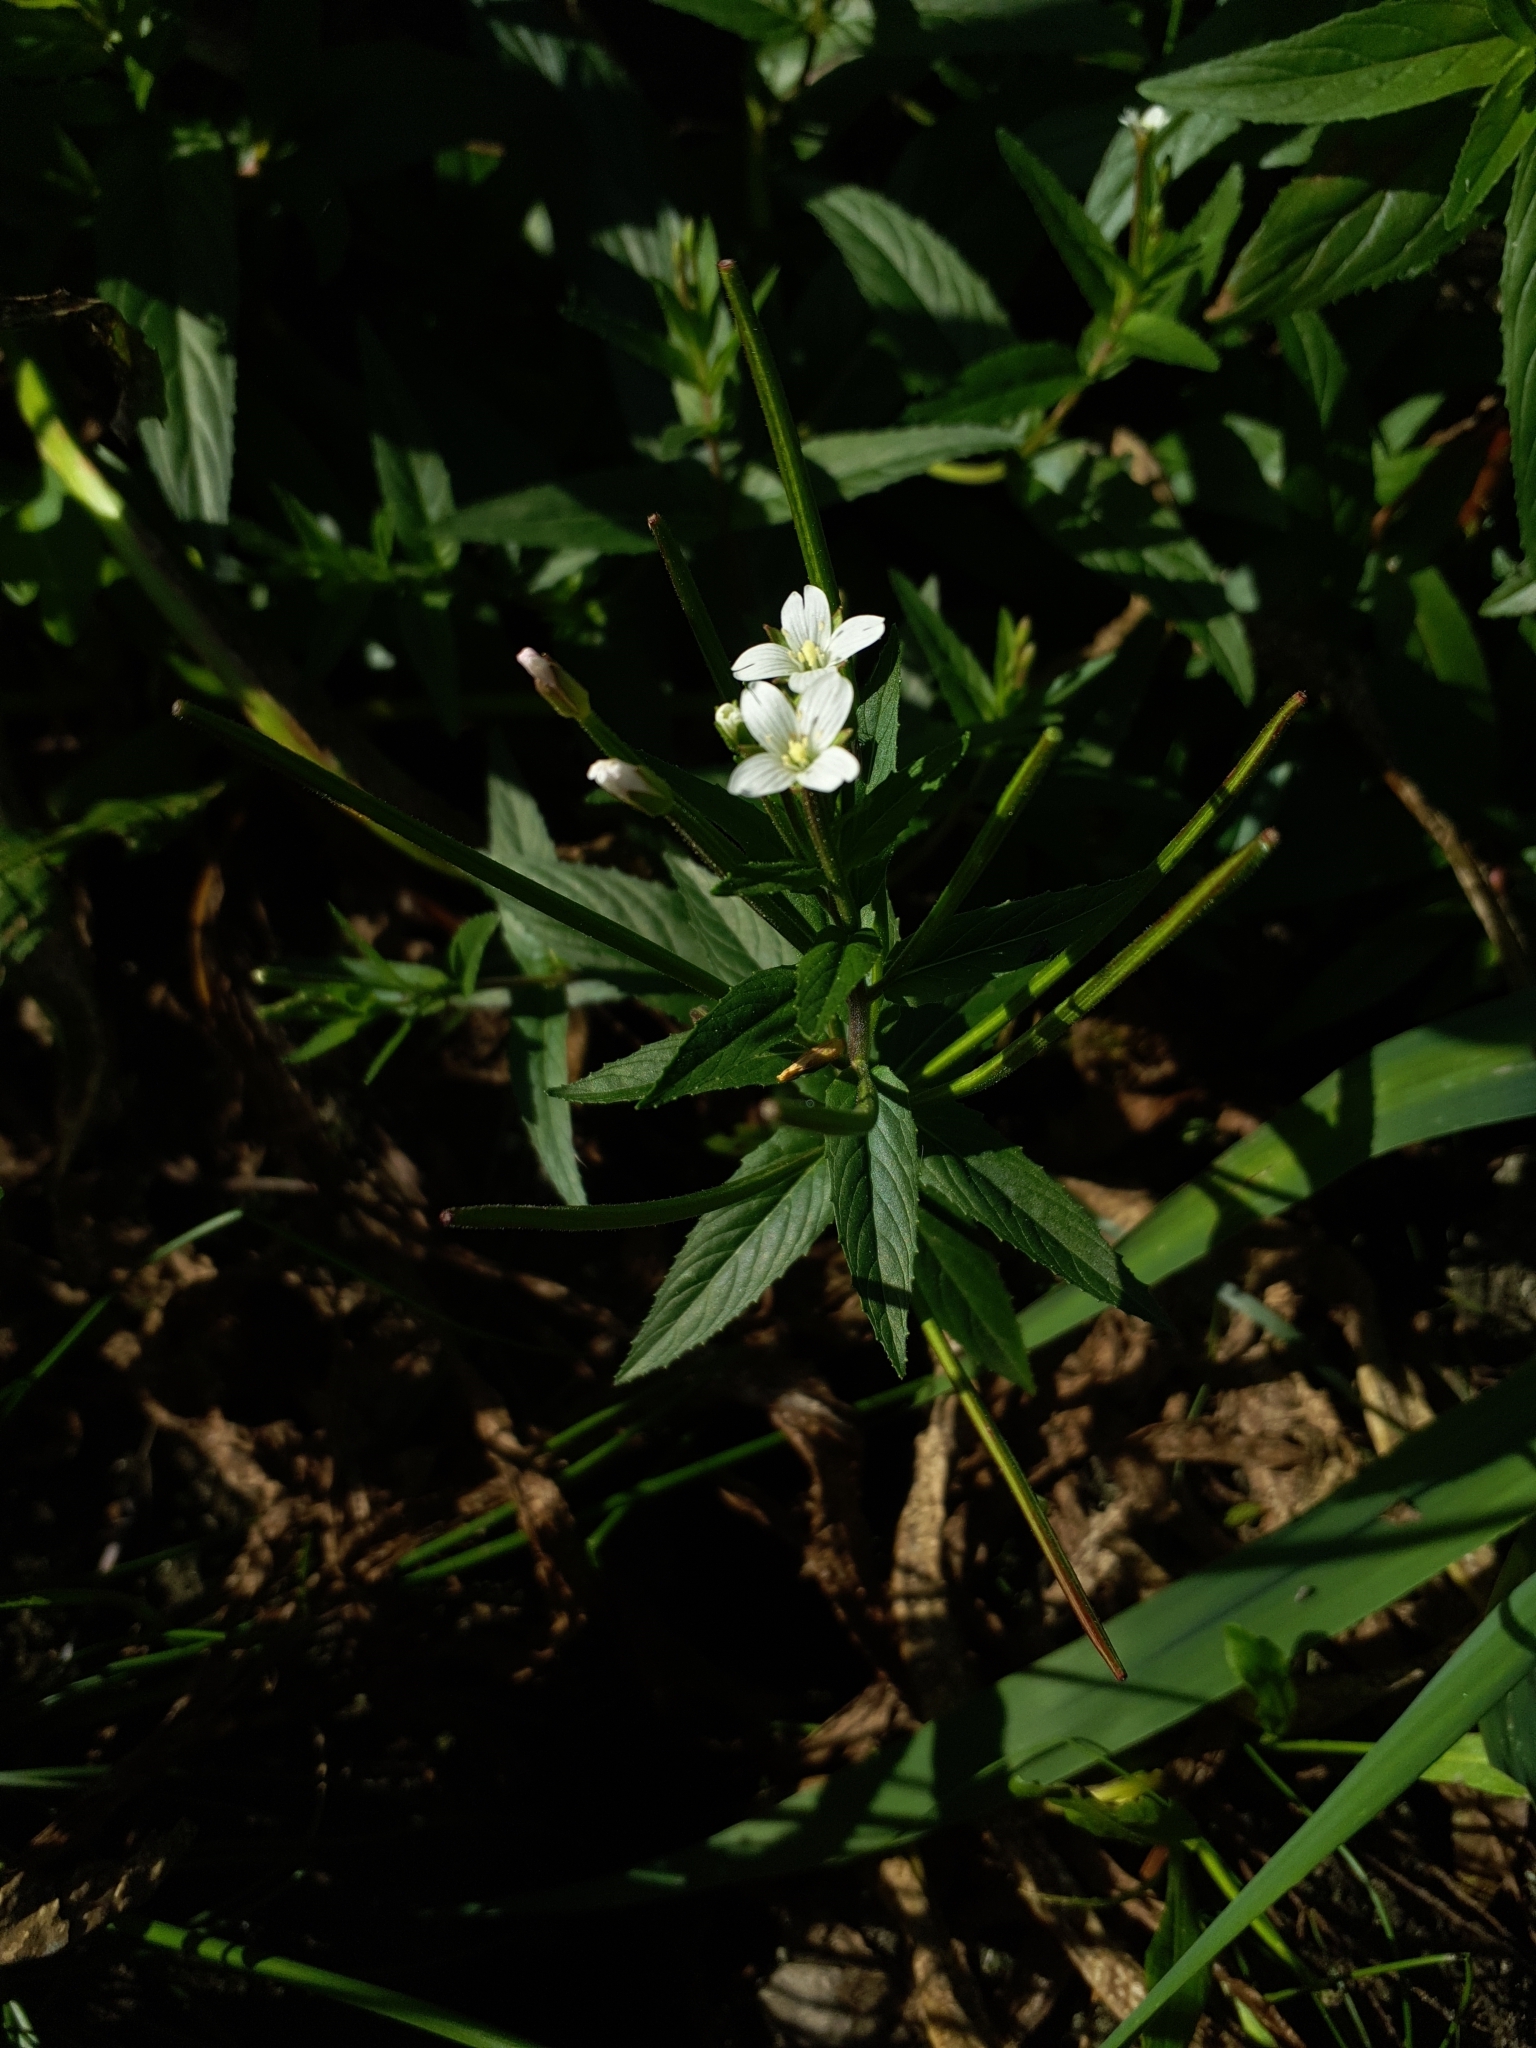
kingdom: Plantae
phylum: Tracheophyta
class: Magnoliopsida
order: Myrtales
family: Onagraceae
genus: Epilobium
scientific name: Epilobium ciliatum
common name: American willowherb
